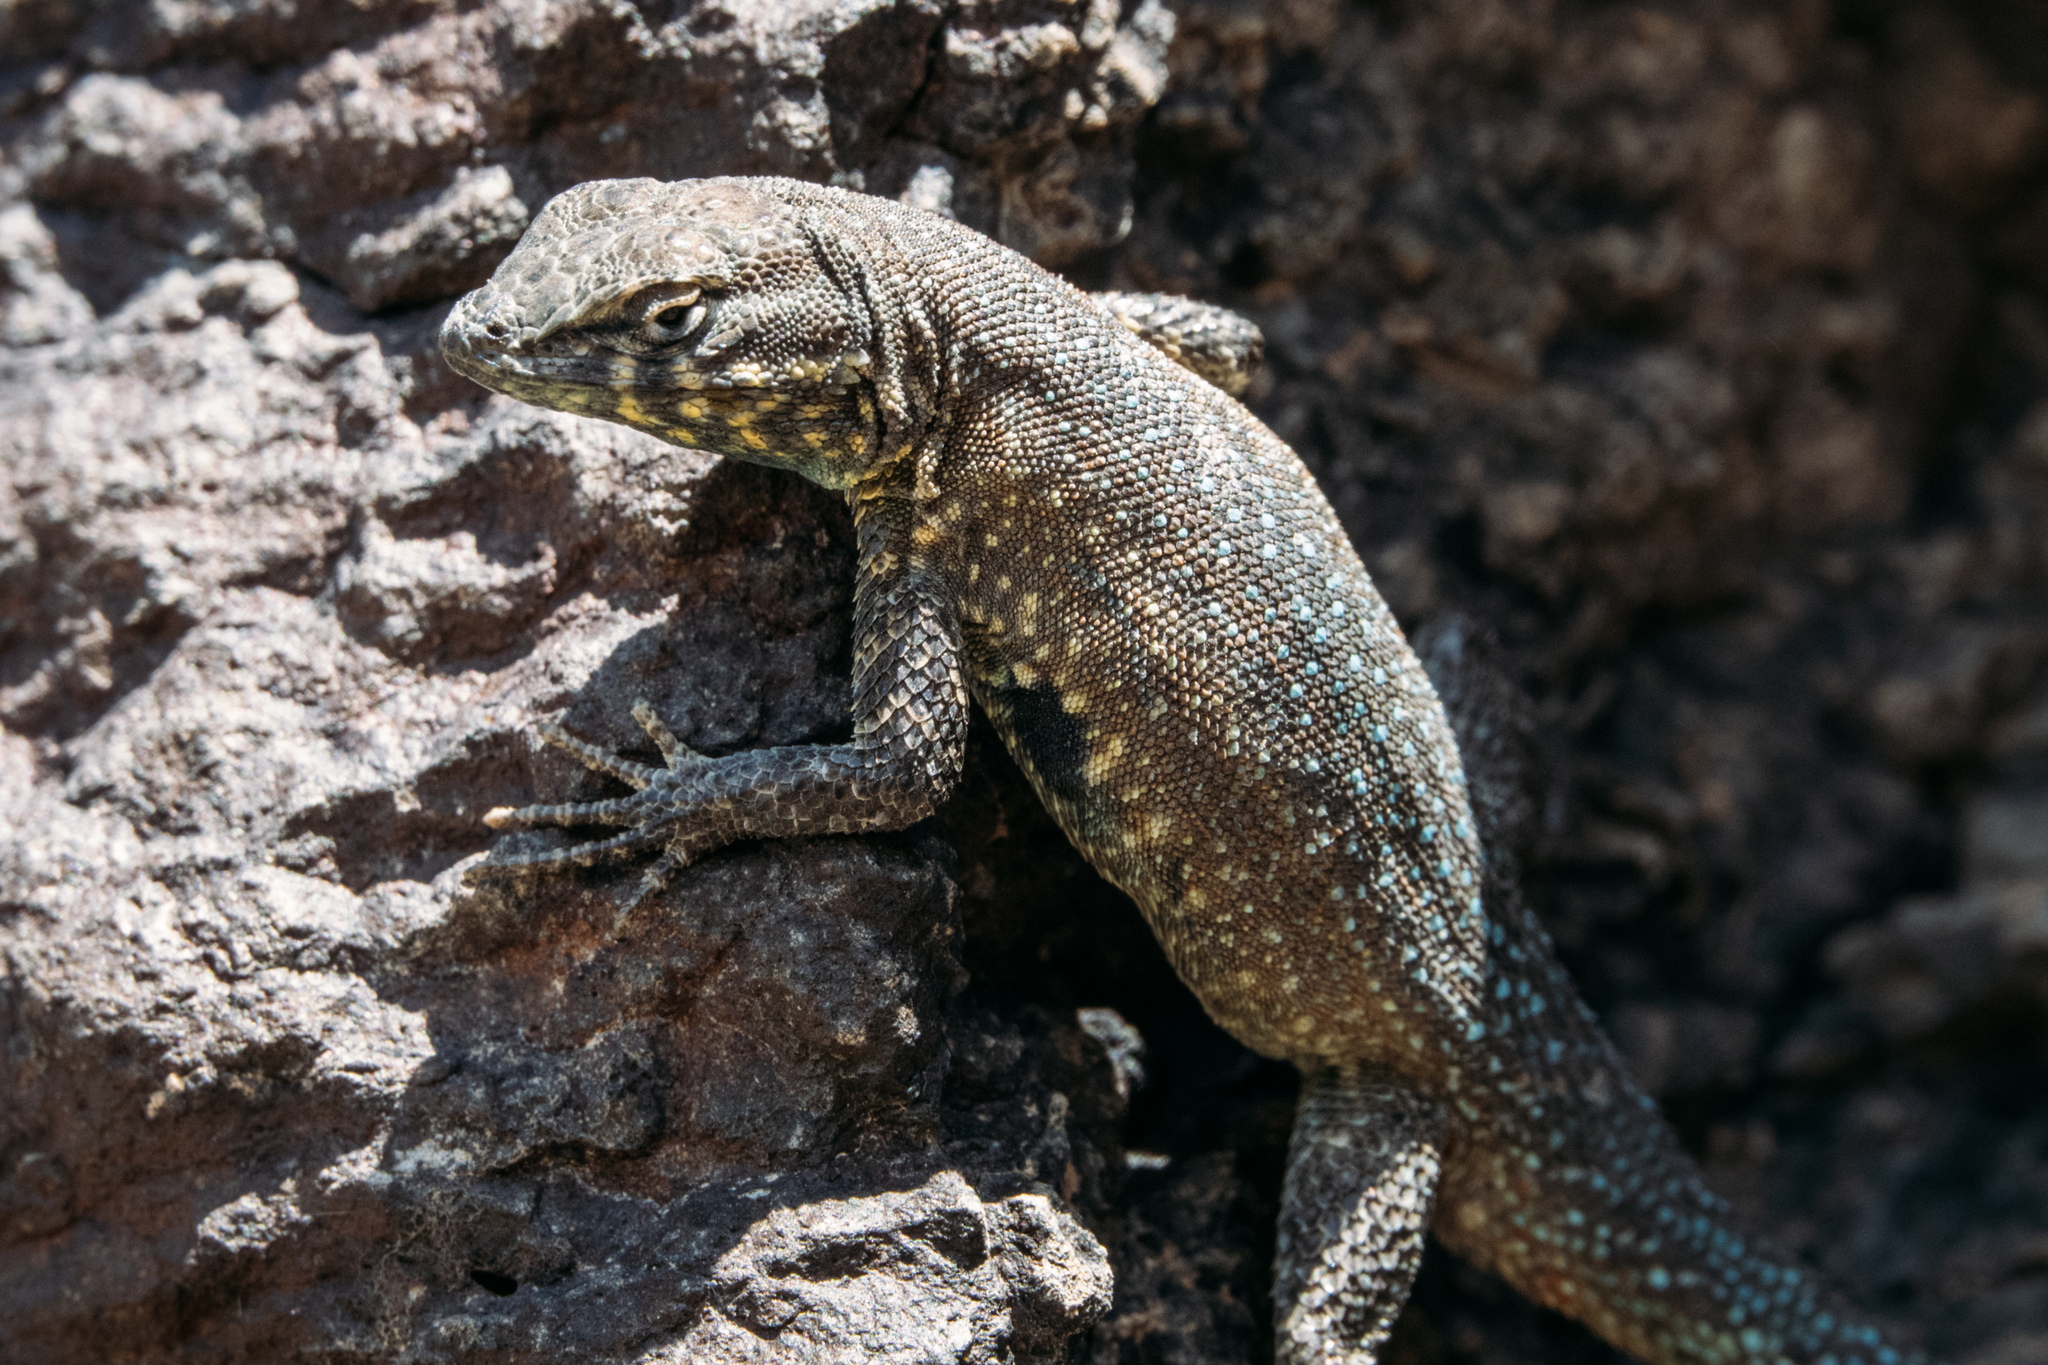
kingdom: Animalia
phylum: Chordata
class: Squamata
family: Phrynosomatidae
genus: Uta
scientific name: Uta stansburiana
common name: Side-blotched lizard
